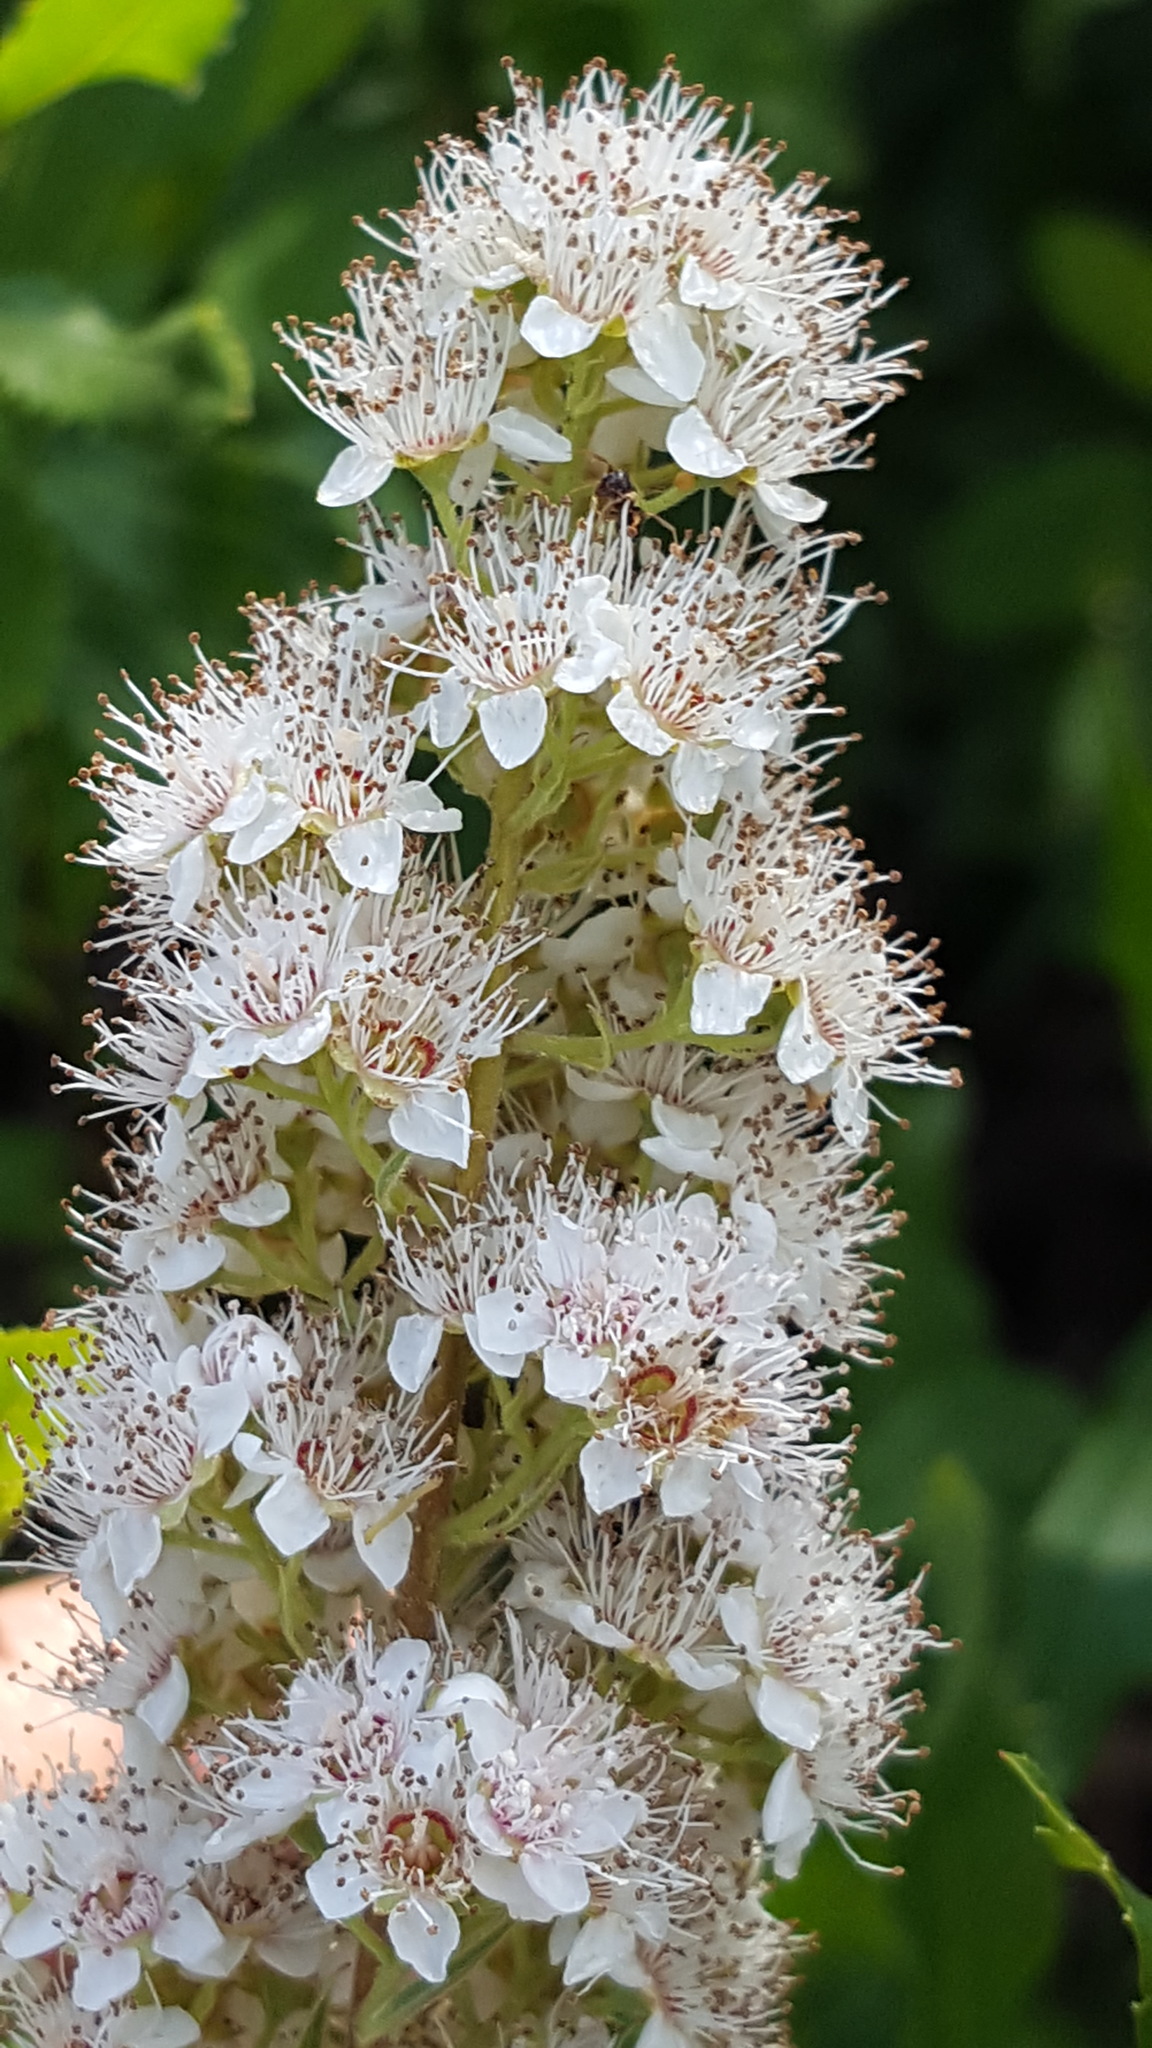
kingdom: Plantae
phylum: Tracheophyta
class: Magnoliopsida
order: Rosales
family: Rosaceae
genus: Spiraea
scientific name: Spiraea alba
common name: Pale bridewort
